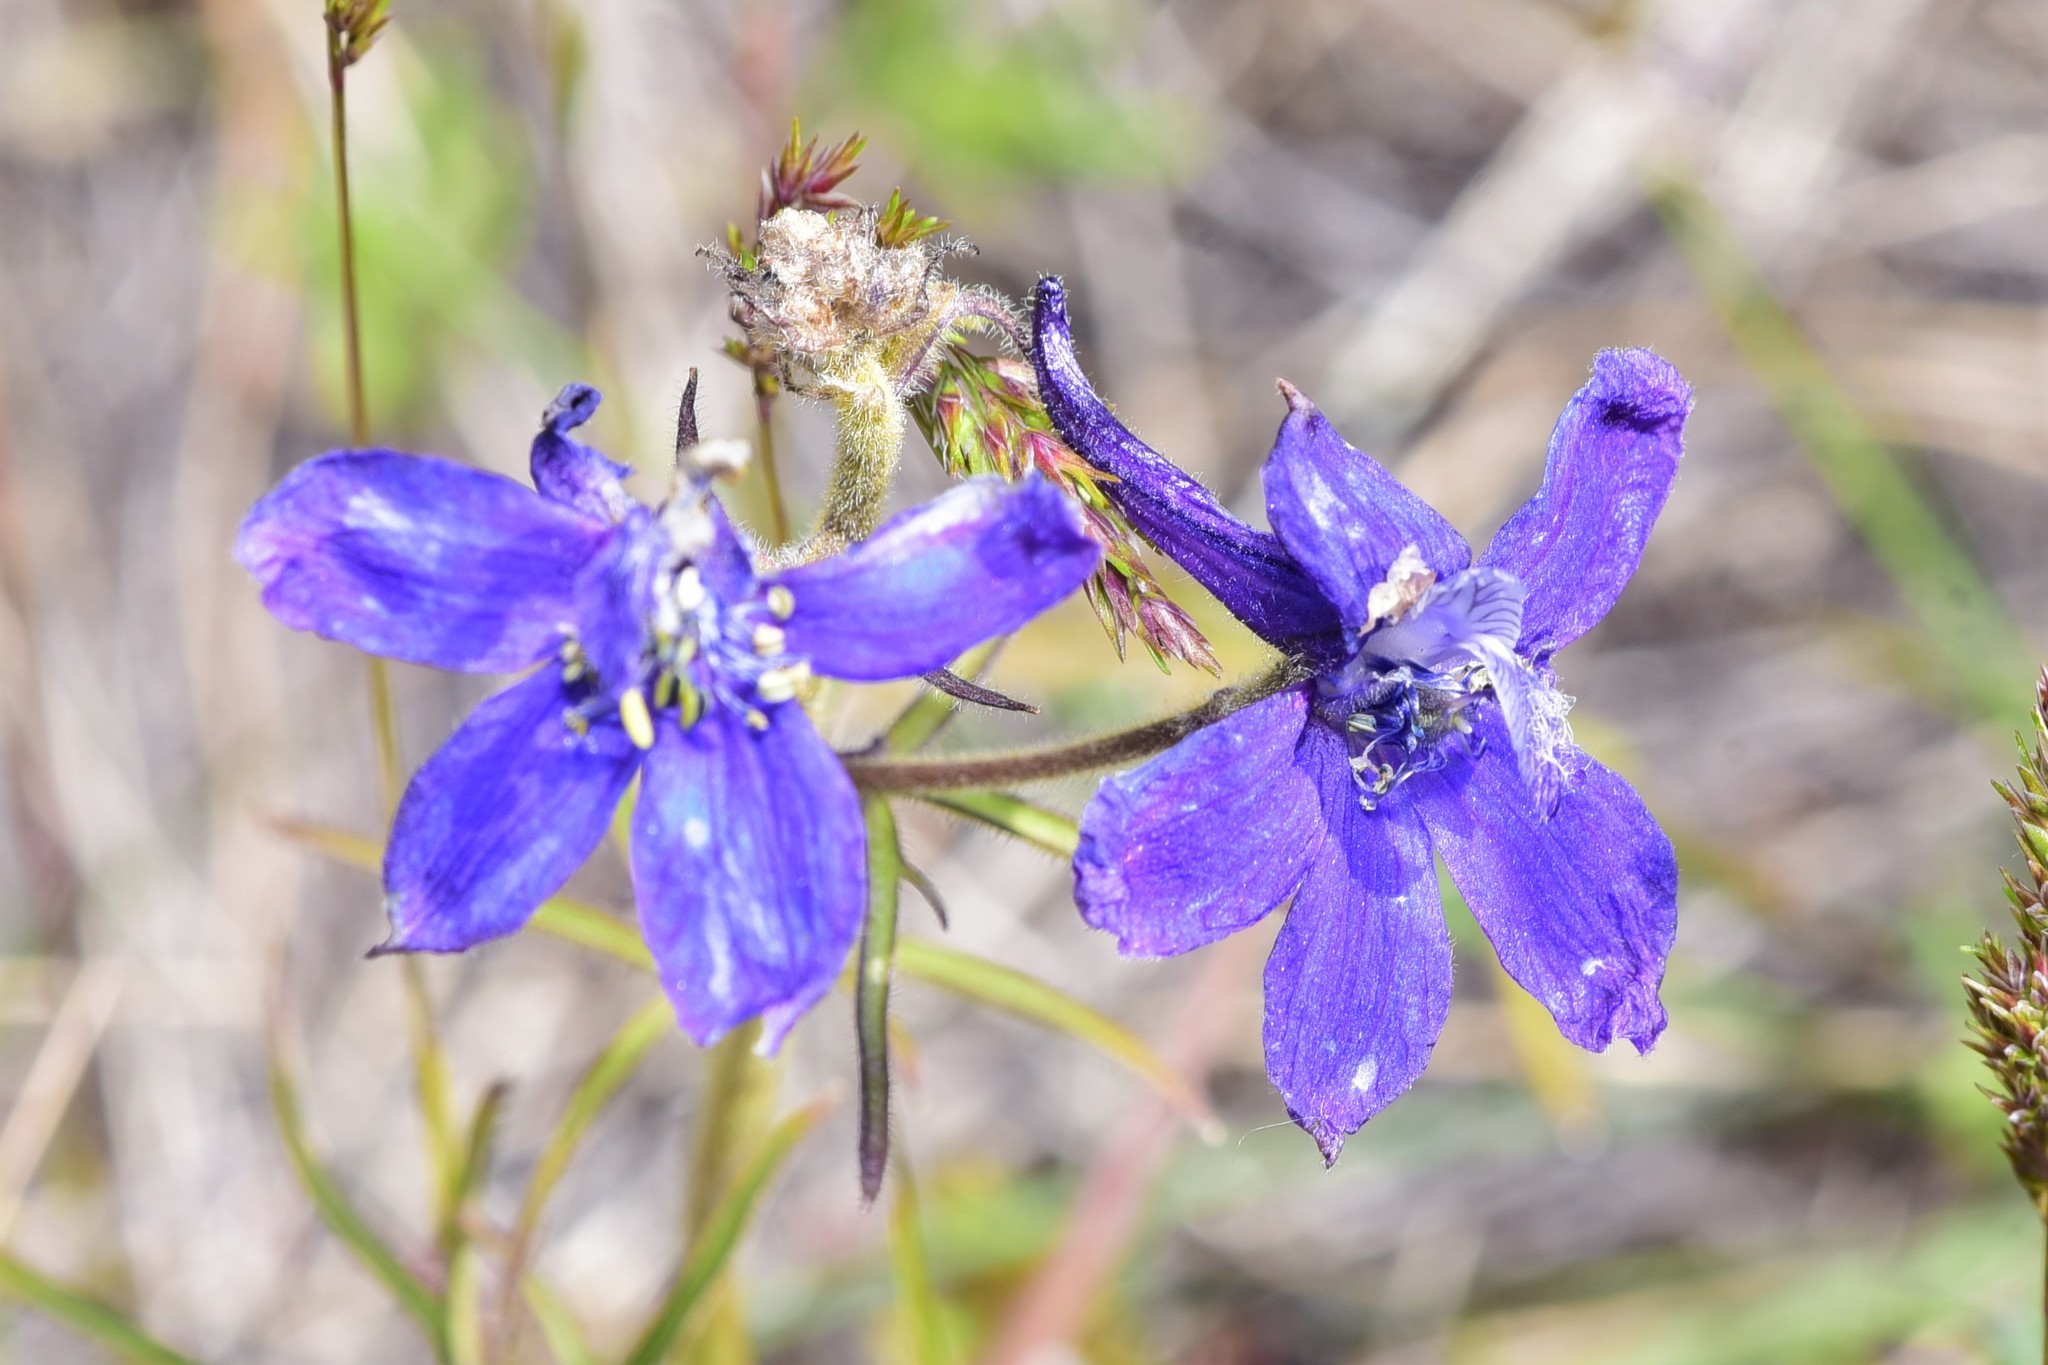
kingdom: Plantae
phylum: Tracheophyta
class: Magnoliopsida
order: Ranunculales
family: Ranunculaceae
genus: Delphinium
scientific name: Delphinium nuttallianum
